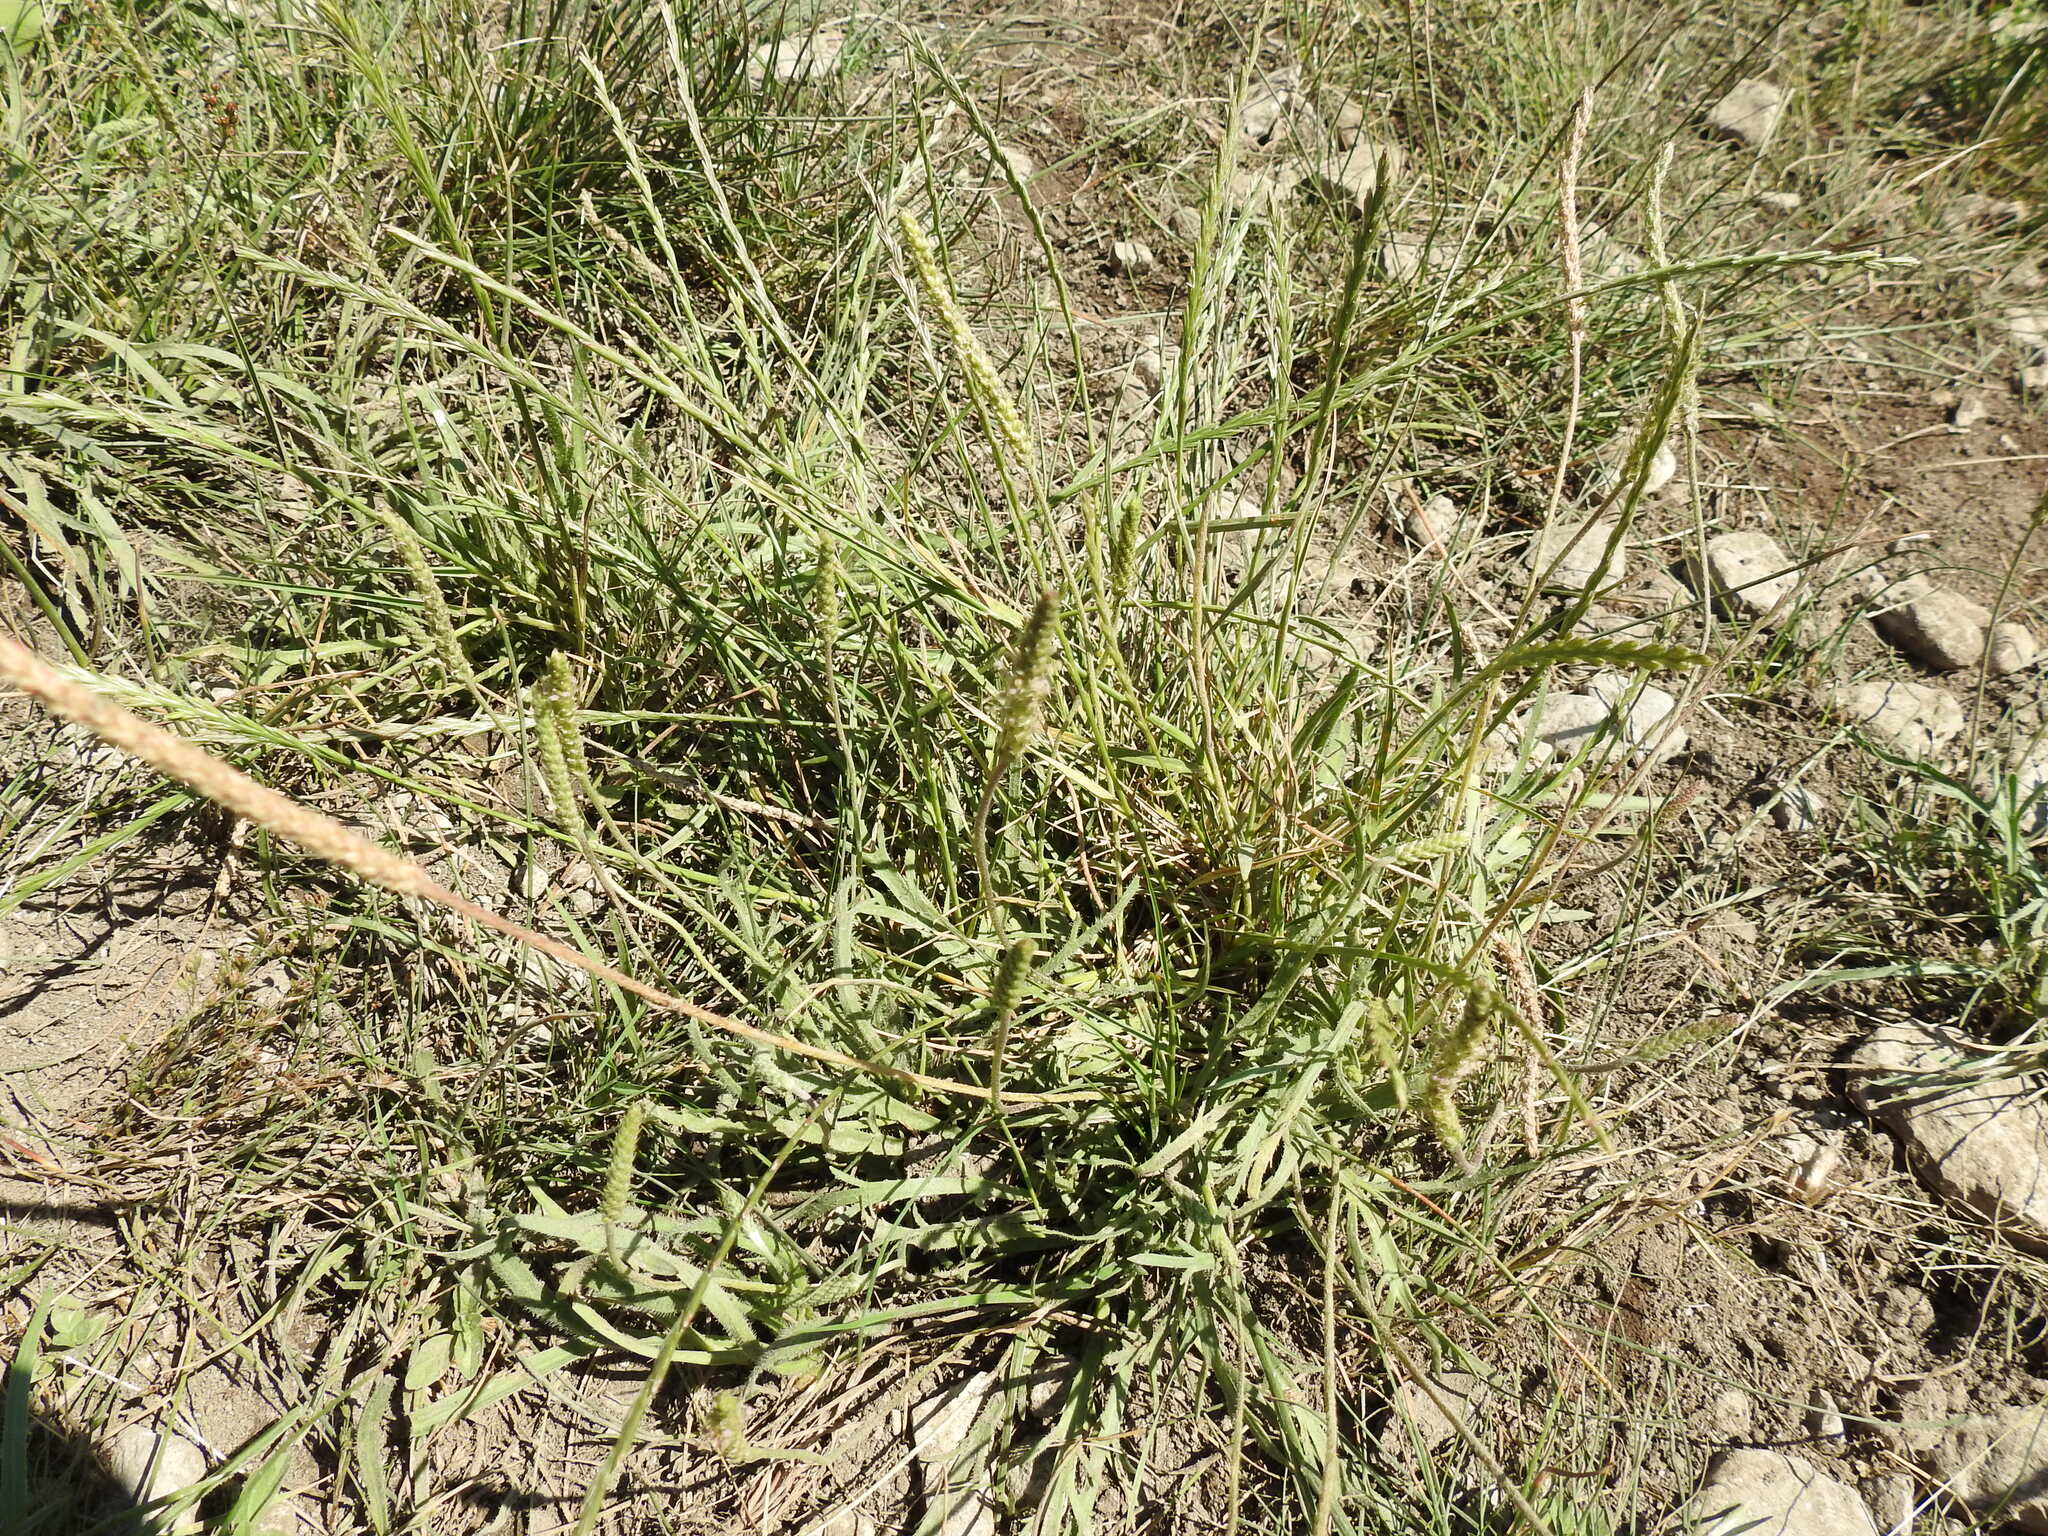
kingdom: Plantae
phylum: Tracheophyta
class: Magnoliopsida
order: Lamiales
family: Plantaginaceae
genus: Plantago
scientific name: Plantago coronopus
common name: Buck's-horn plantain
